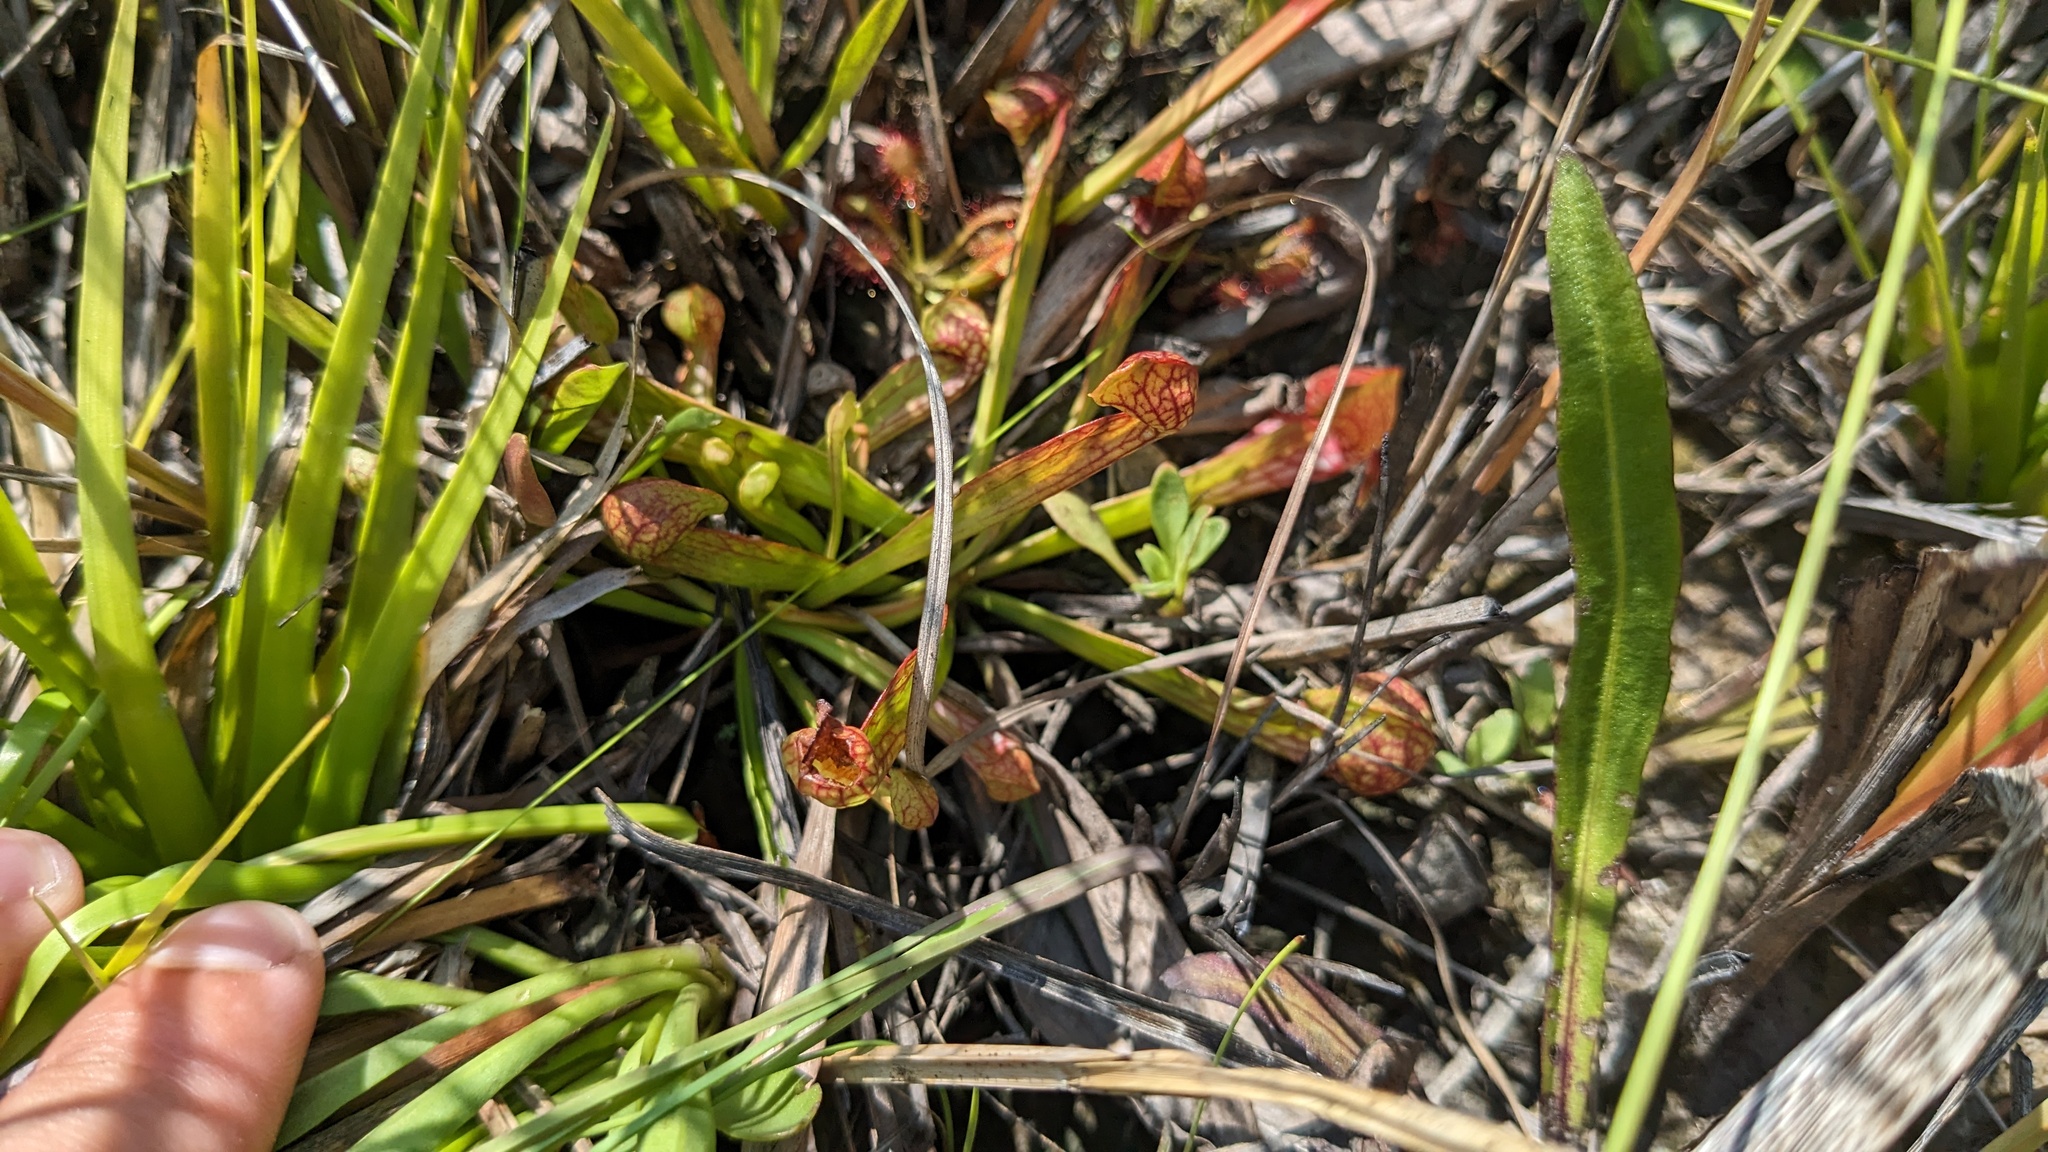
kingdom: Plantae
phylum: Tracheophyta
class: Magnoliopsida
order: Ericales
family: Sarraceniaceae
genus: Sarracenia
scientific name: Sarracenia psittacina
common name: Parrot pitcherplant
